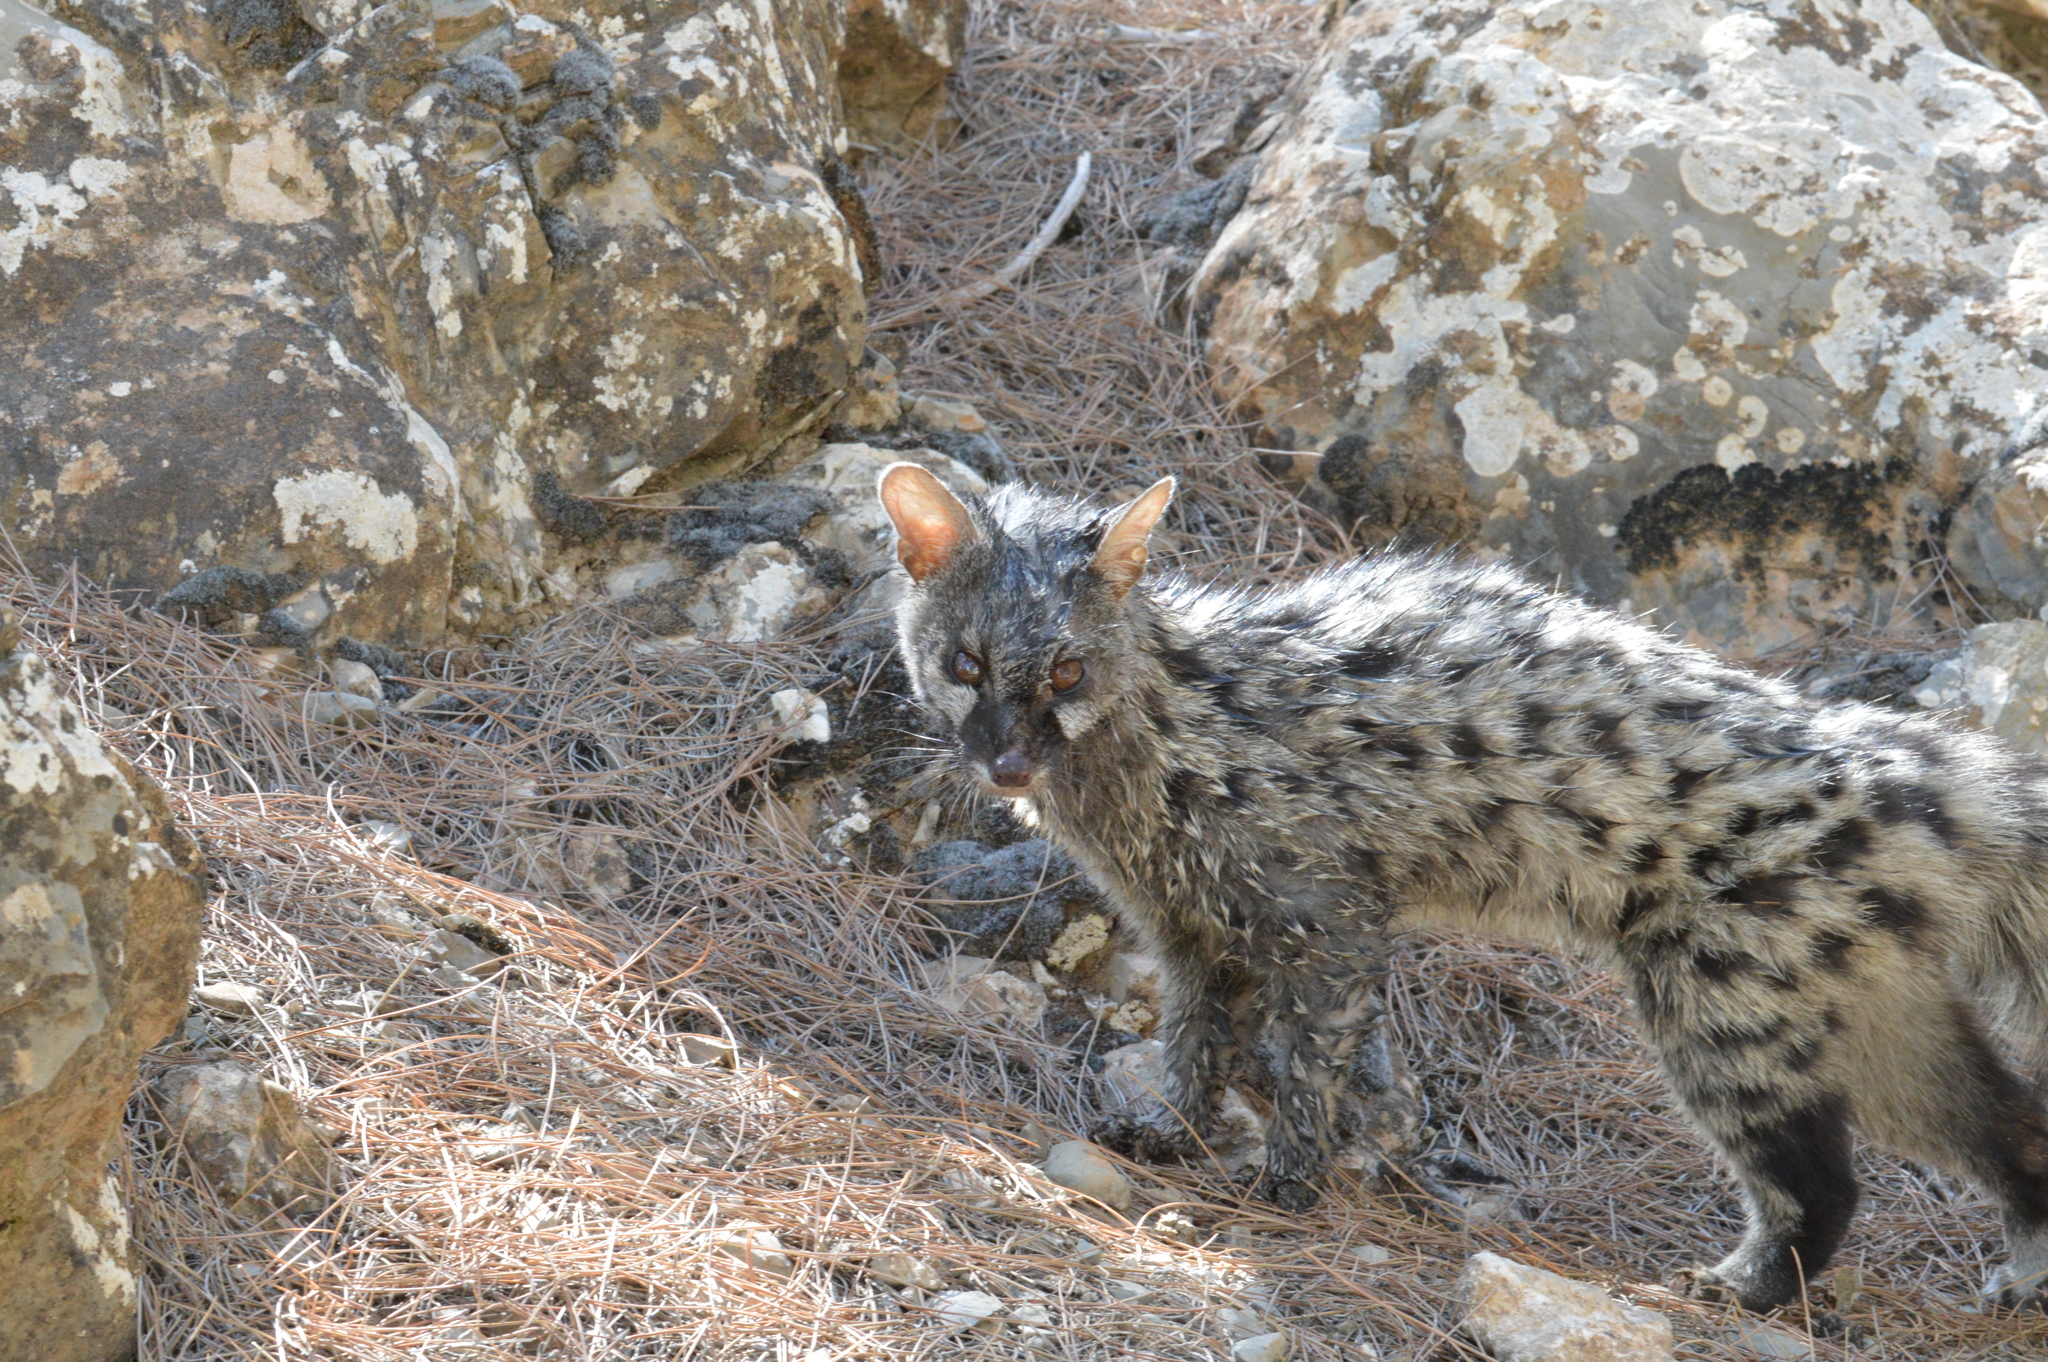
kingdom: Animalia
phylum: Chordata
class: Mammalia
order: Carnivora
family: Viverridae
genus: Genetta
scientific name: Genetta genetta
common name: Common genet
